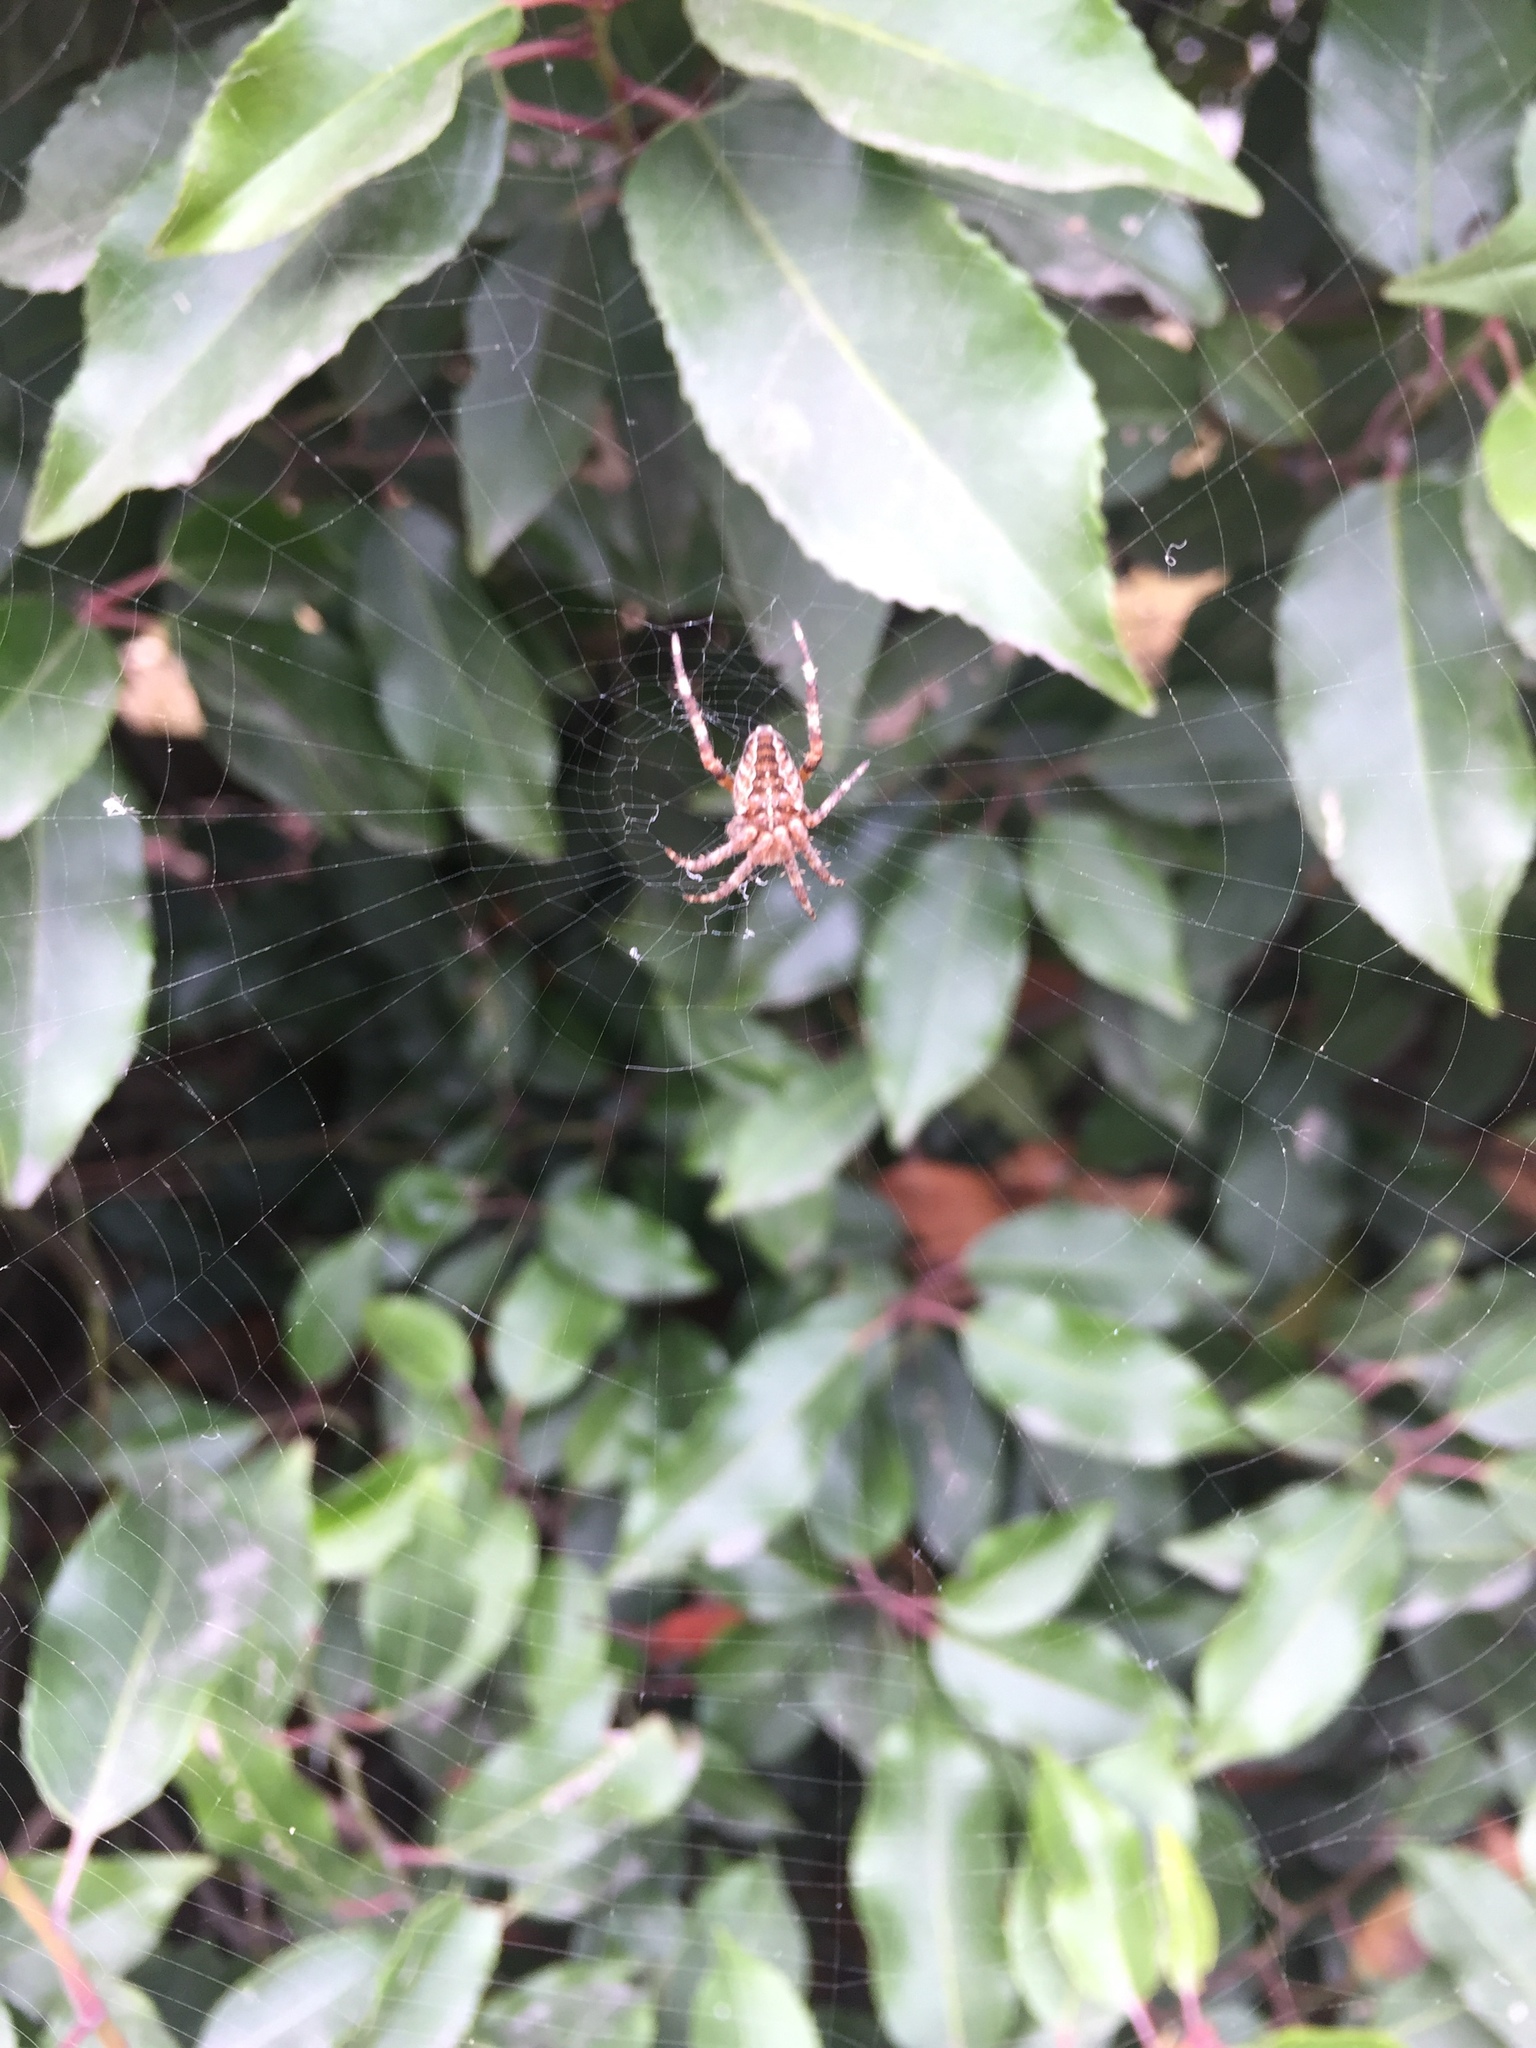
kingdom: Animalia
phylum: Arthropoda
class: Arachnida
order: Araneae
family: Araneidae
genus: Araneus
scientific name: Araneus diadematus
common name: Cross orbweaver
